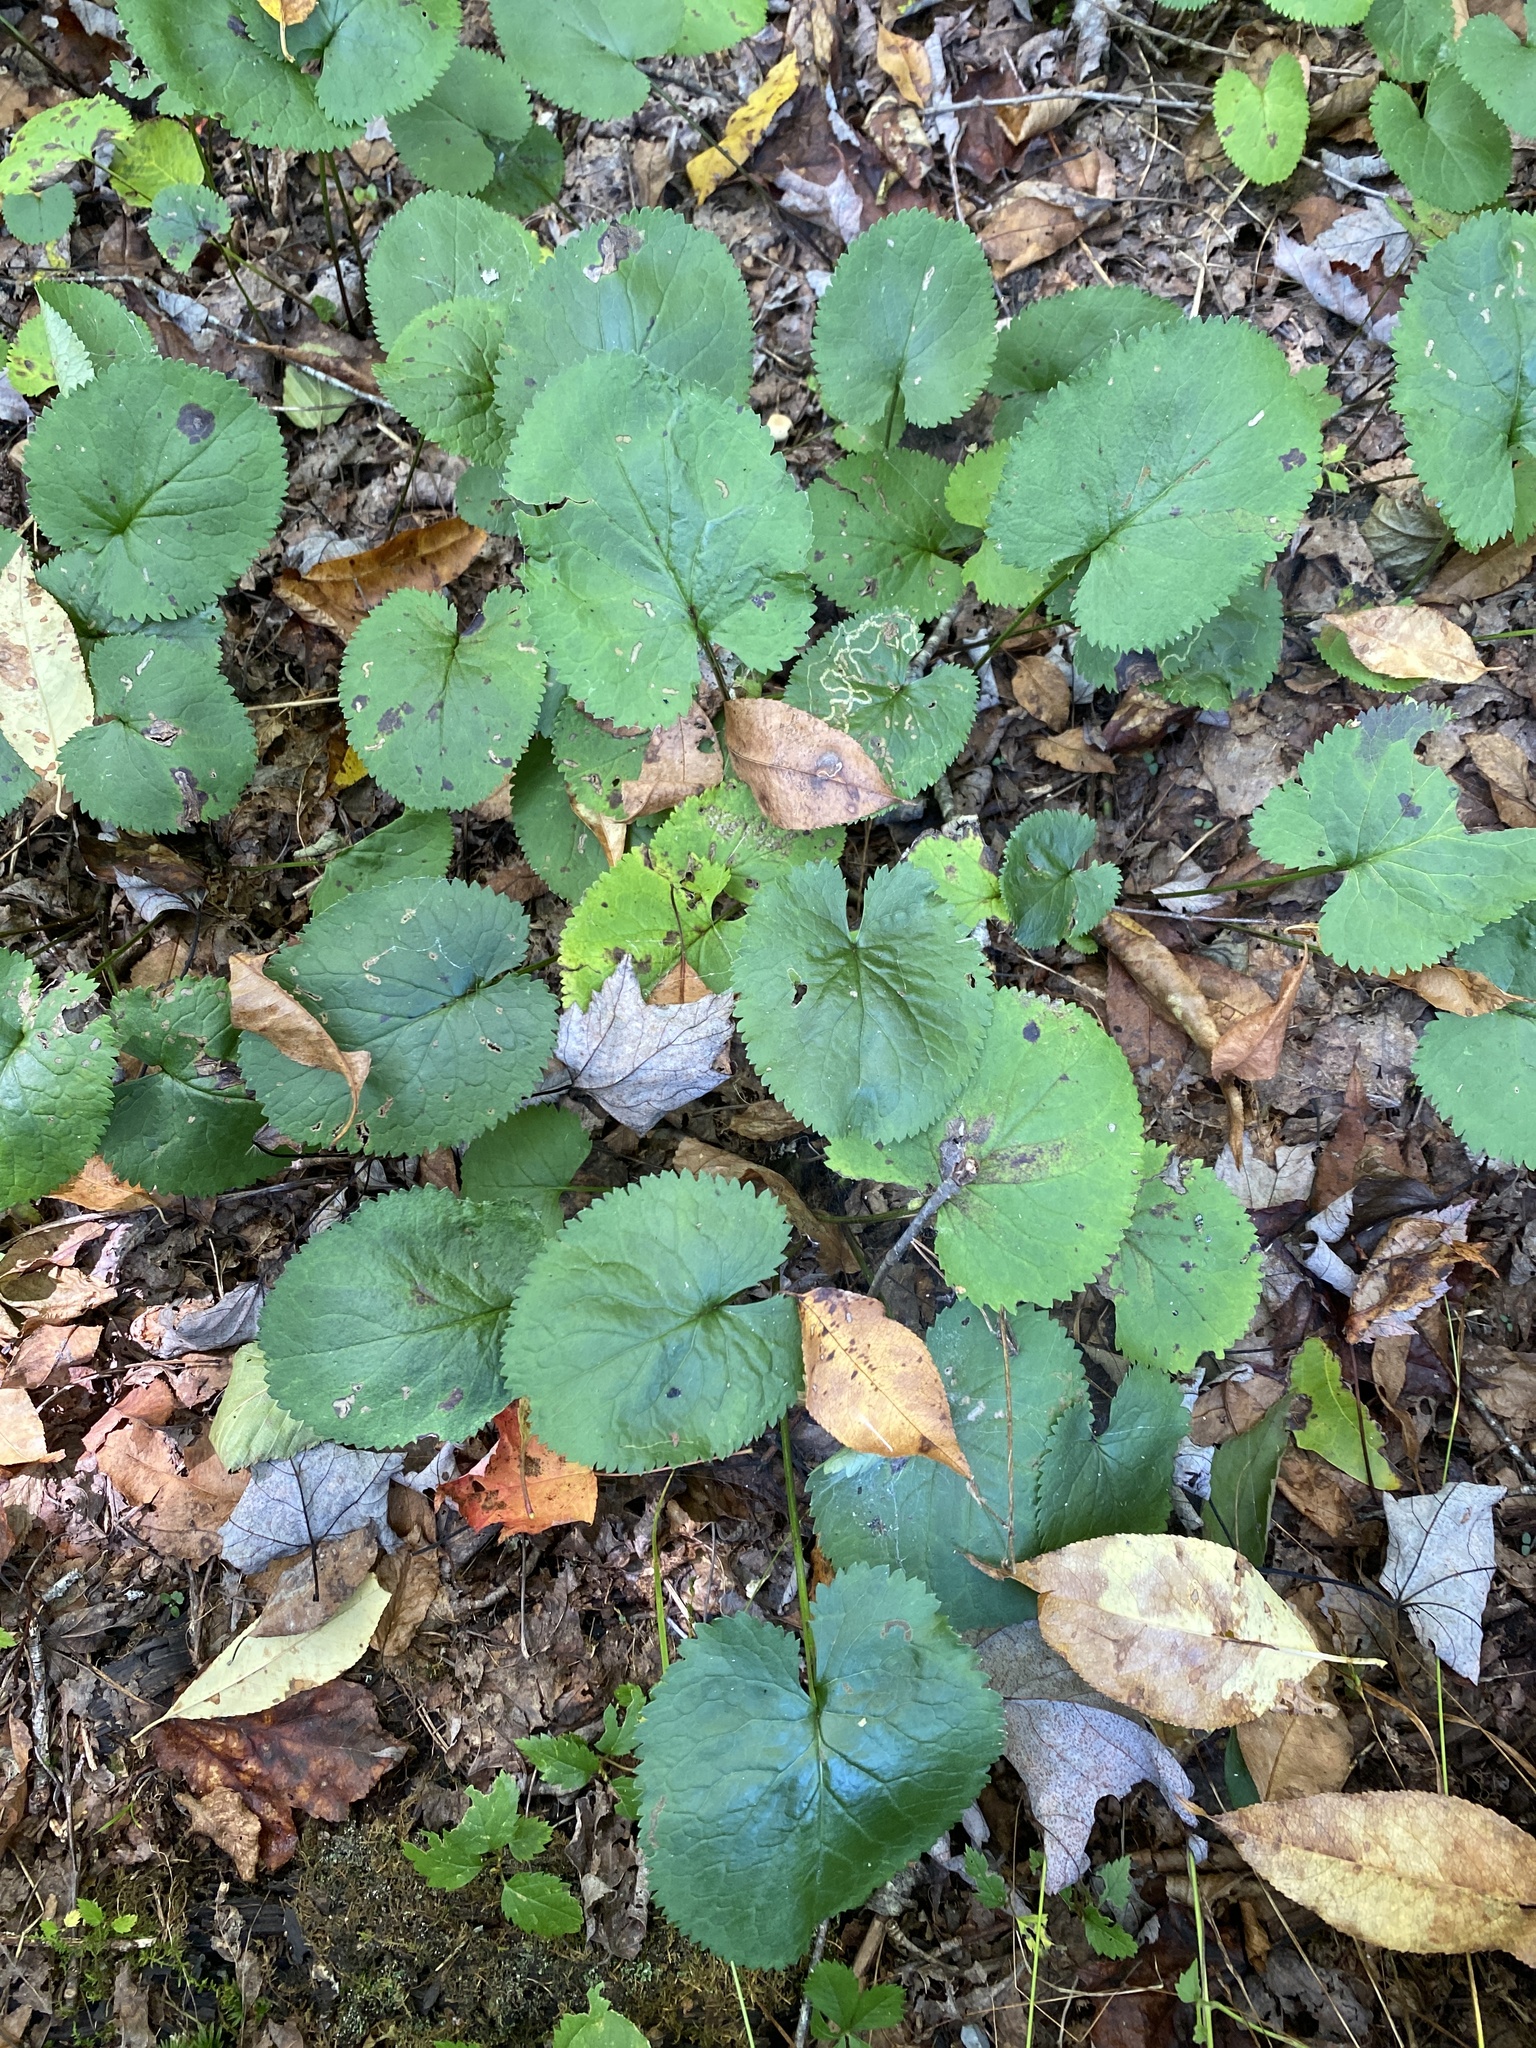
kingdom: Plantae
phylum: Tracheophyta
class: Magnoliopsida
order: Asterales
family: Asteraceae
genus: Packera
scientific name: Packera aurea
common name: Golden groundsel
